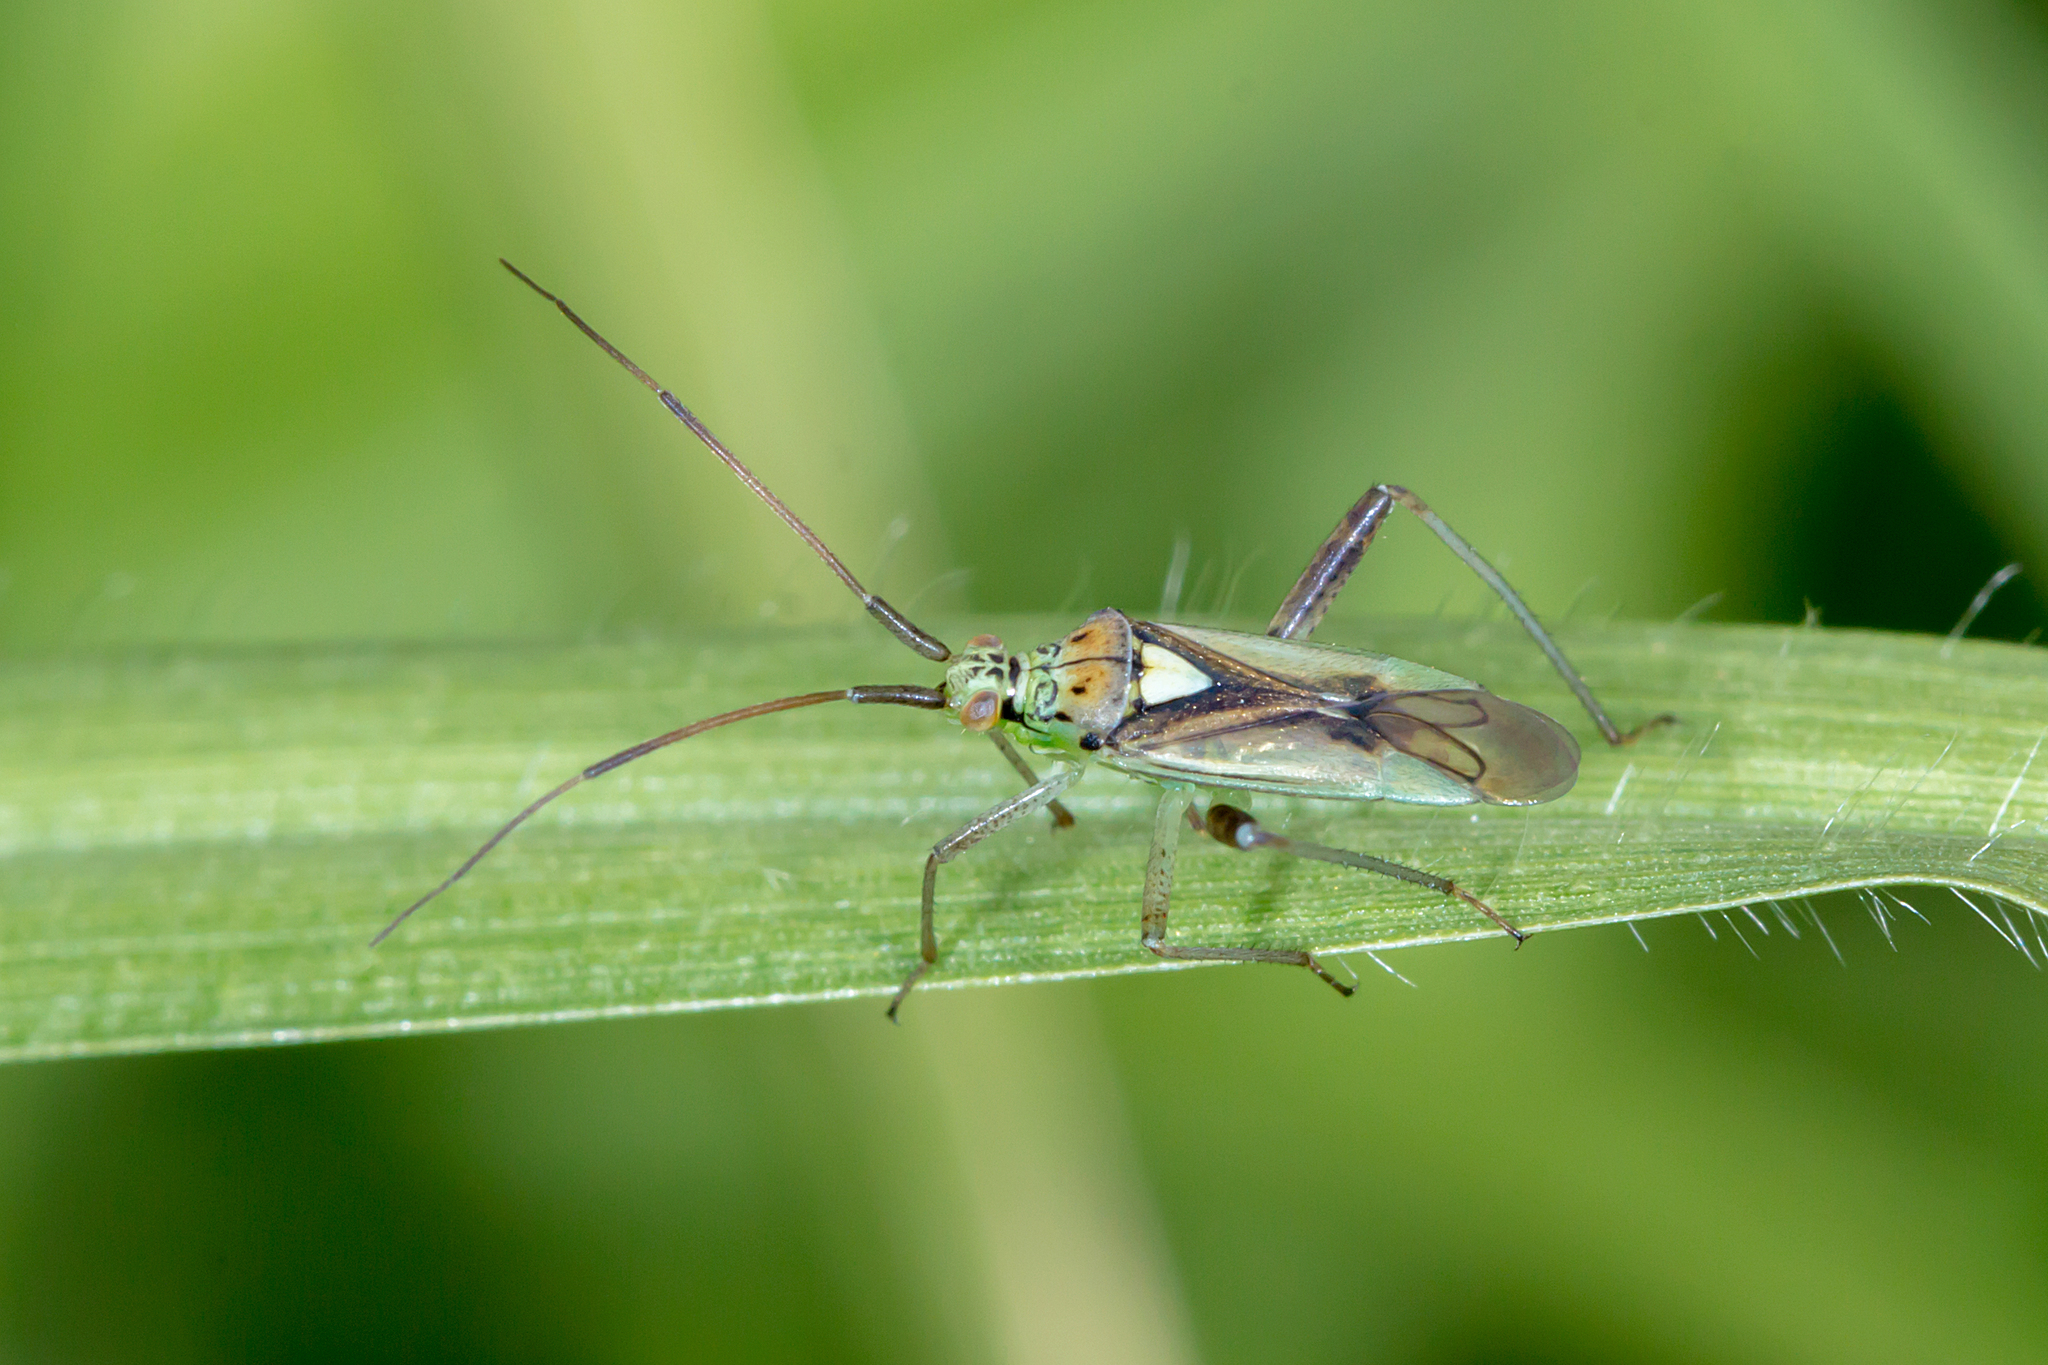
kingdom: Animalia
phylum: Arthropoda
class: Insecta
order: Hemiptera
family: Miridae
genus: Lincolnia
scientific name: Lincolnia lucernina
